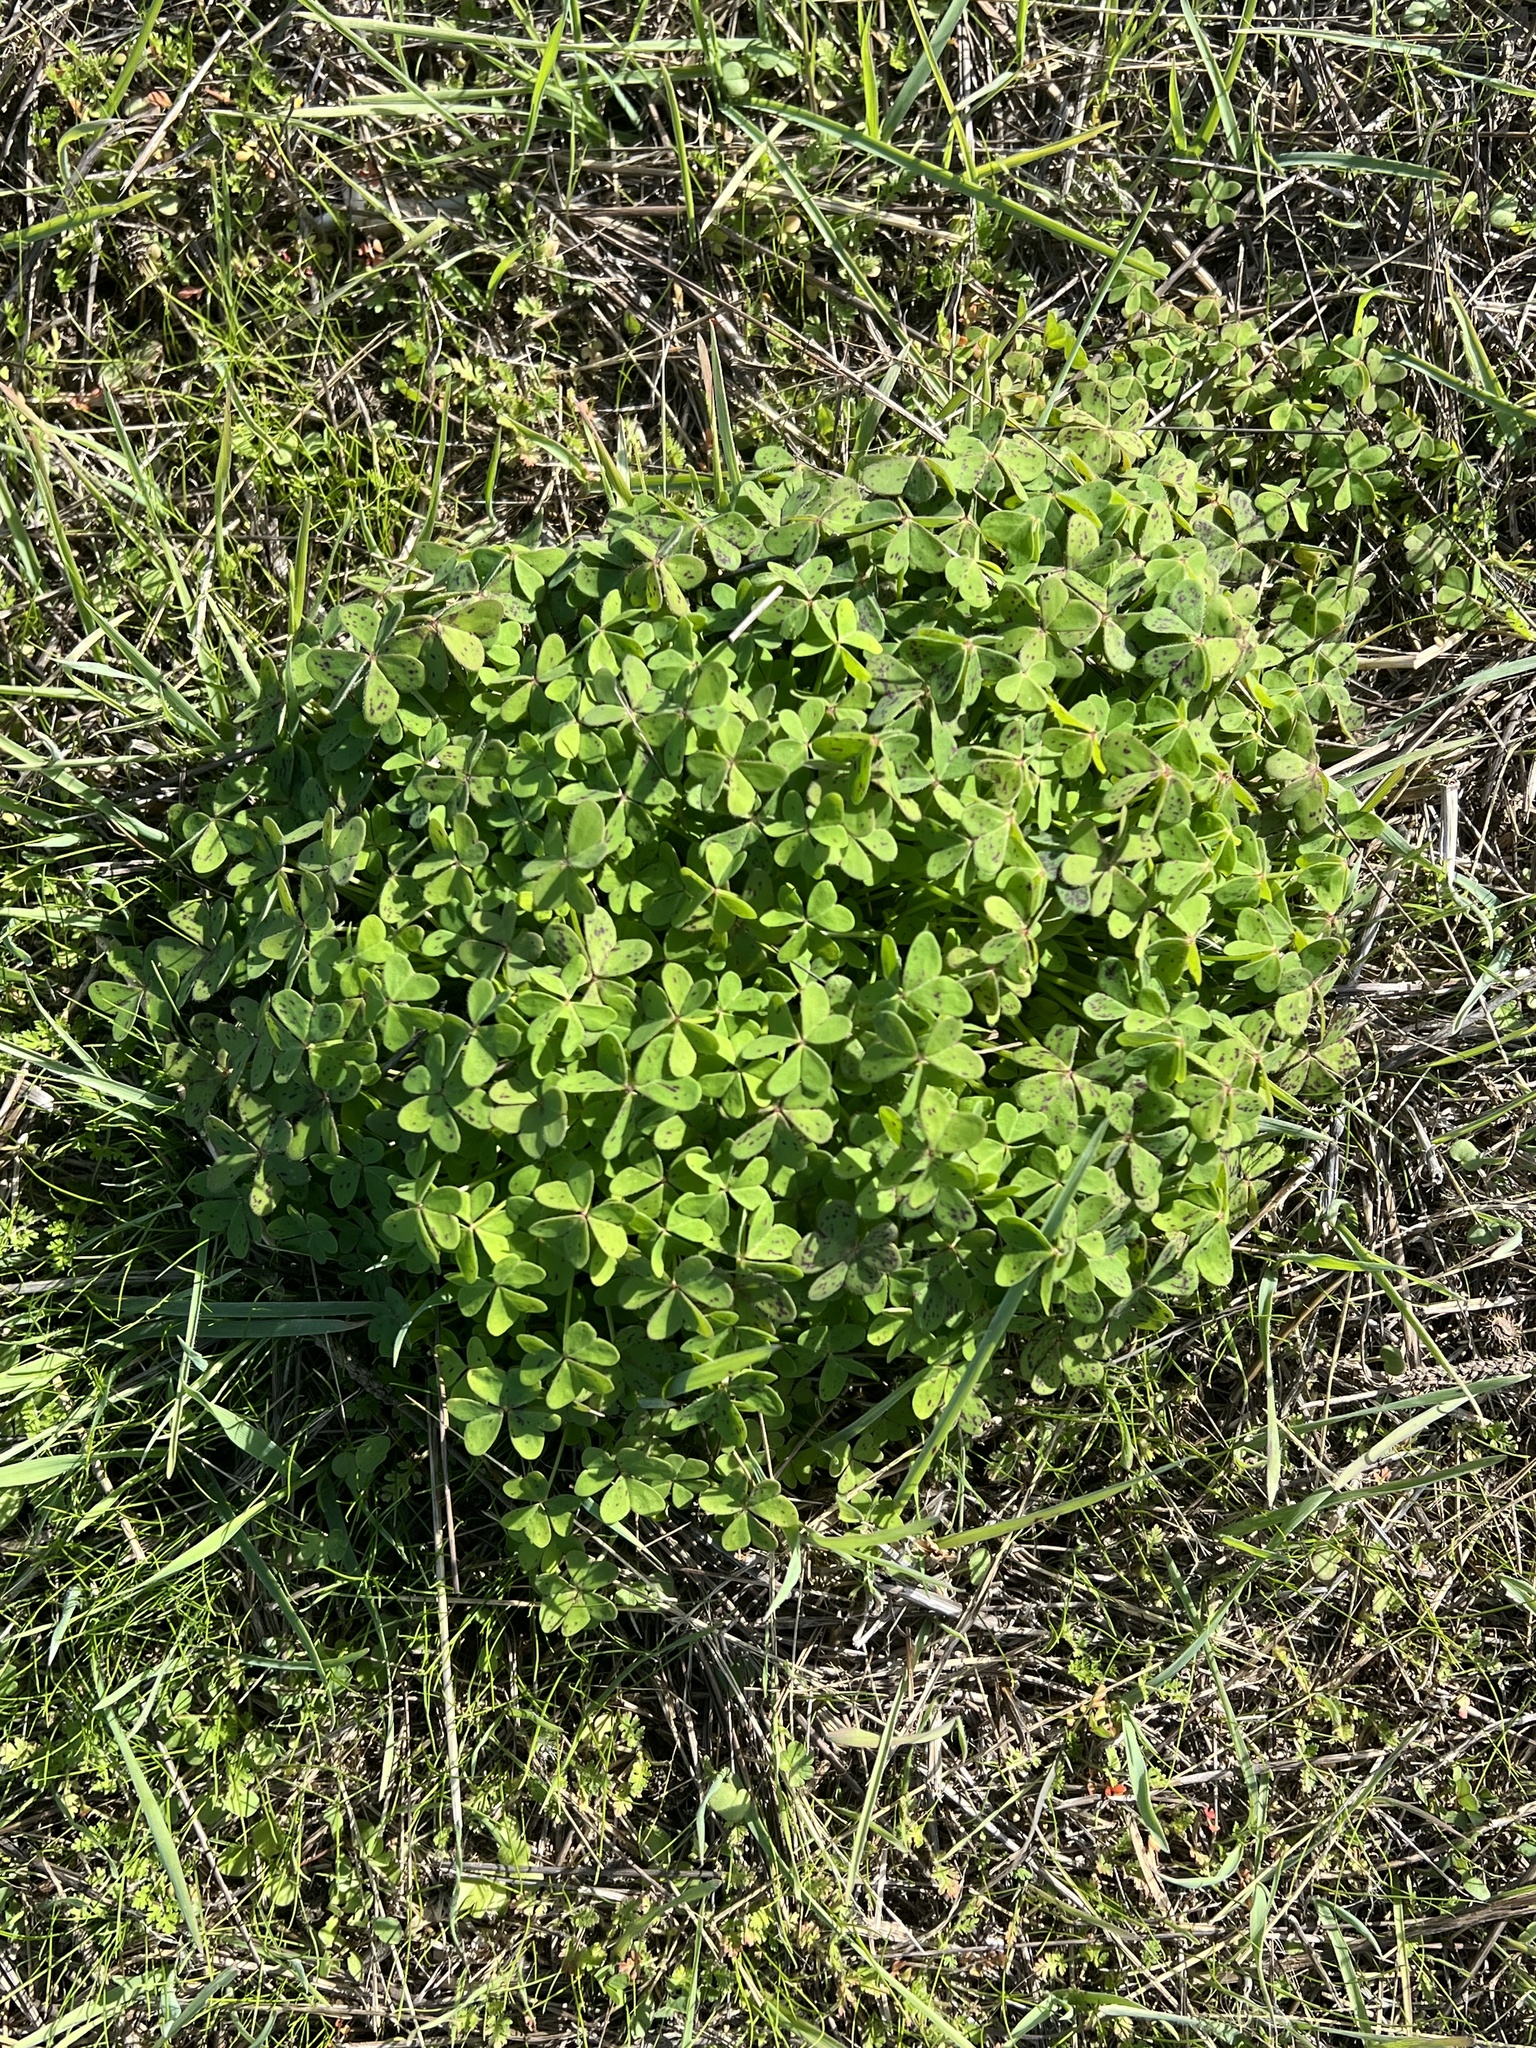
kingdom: Plantae
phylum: Tracheophyta
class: Magnoliopsida
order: Oxalidales
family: Oxalidaceae
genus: Oxalis
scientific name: Oxalis pes-caprae
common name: Bermuda-buttercup
